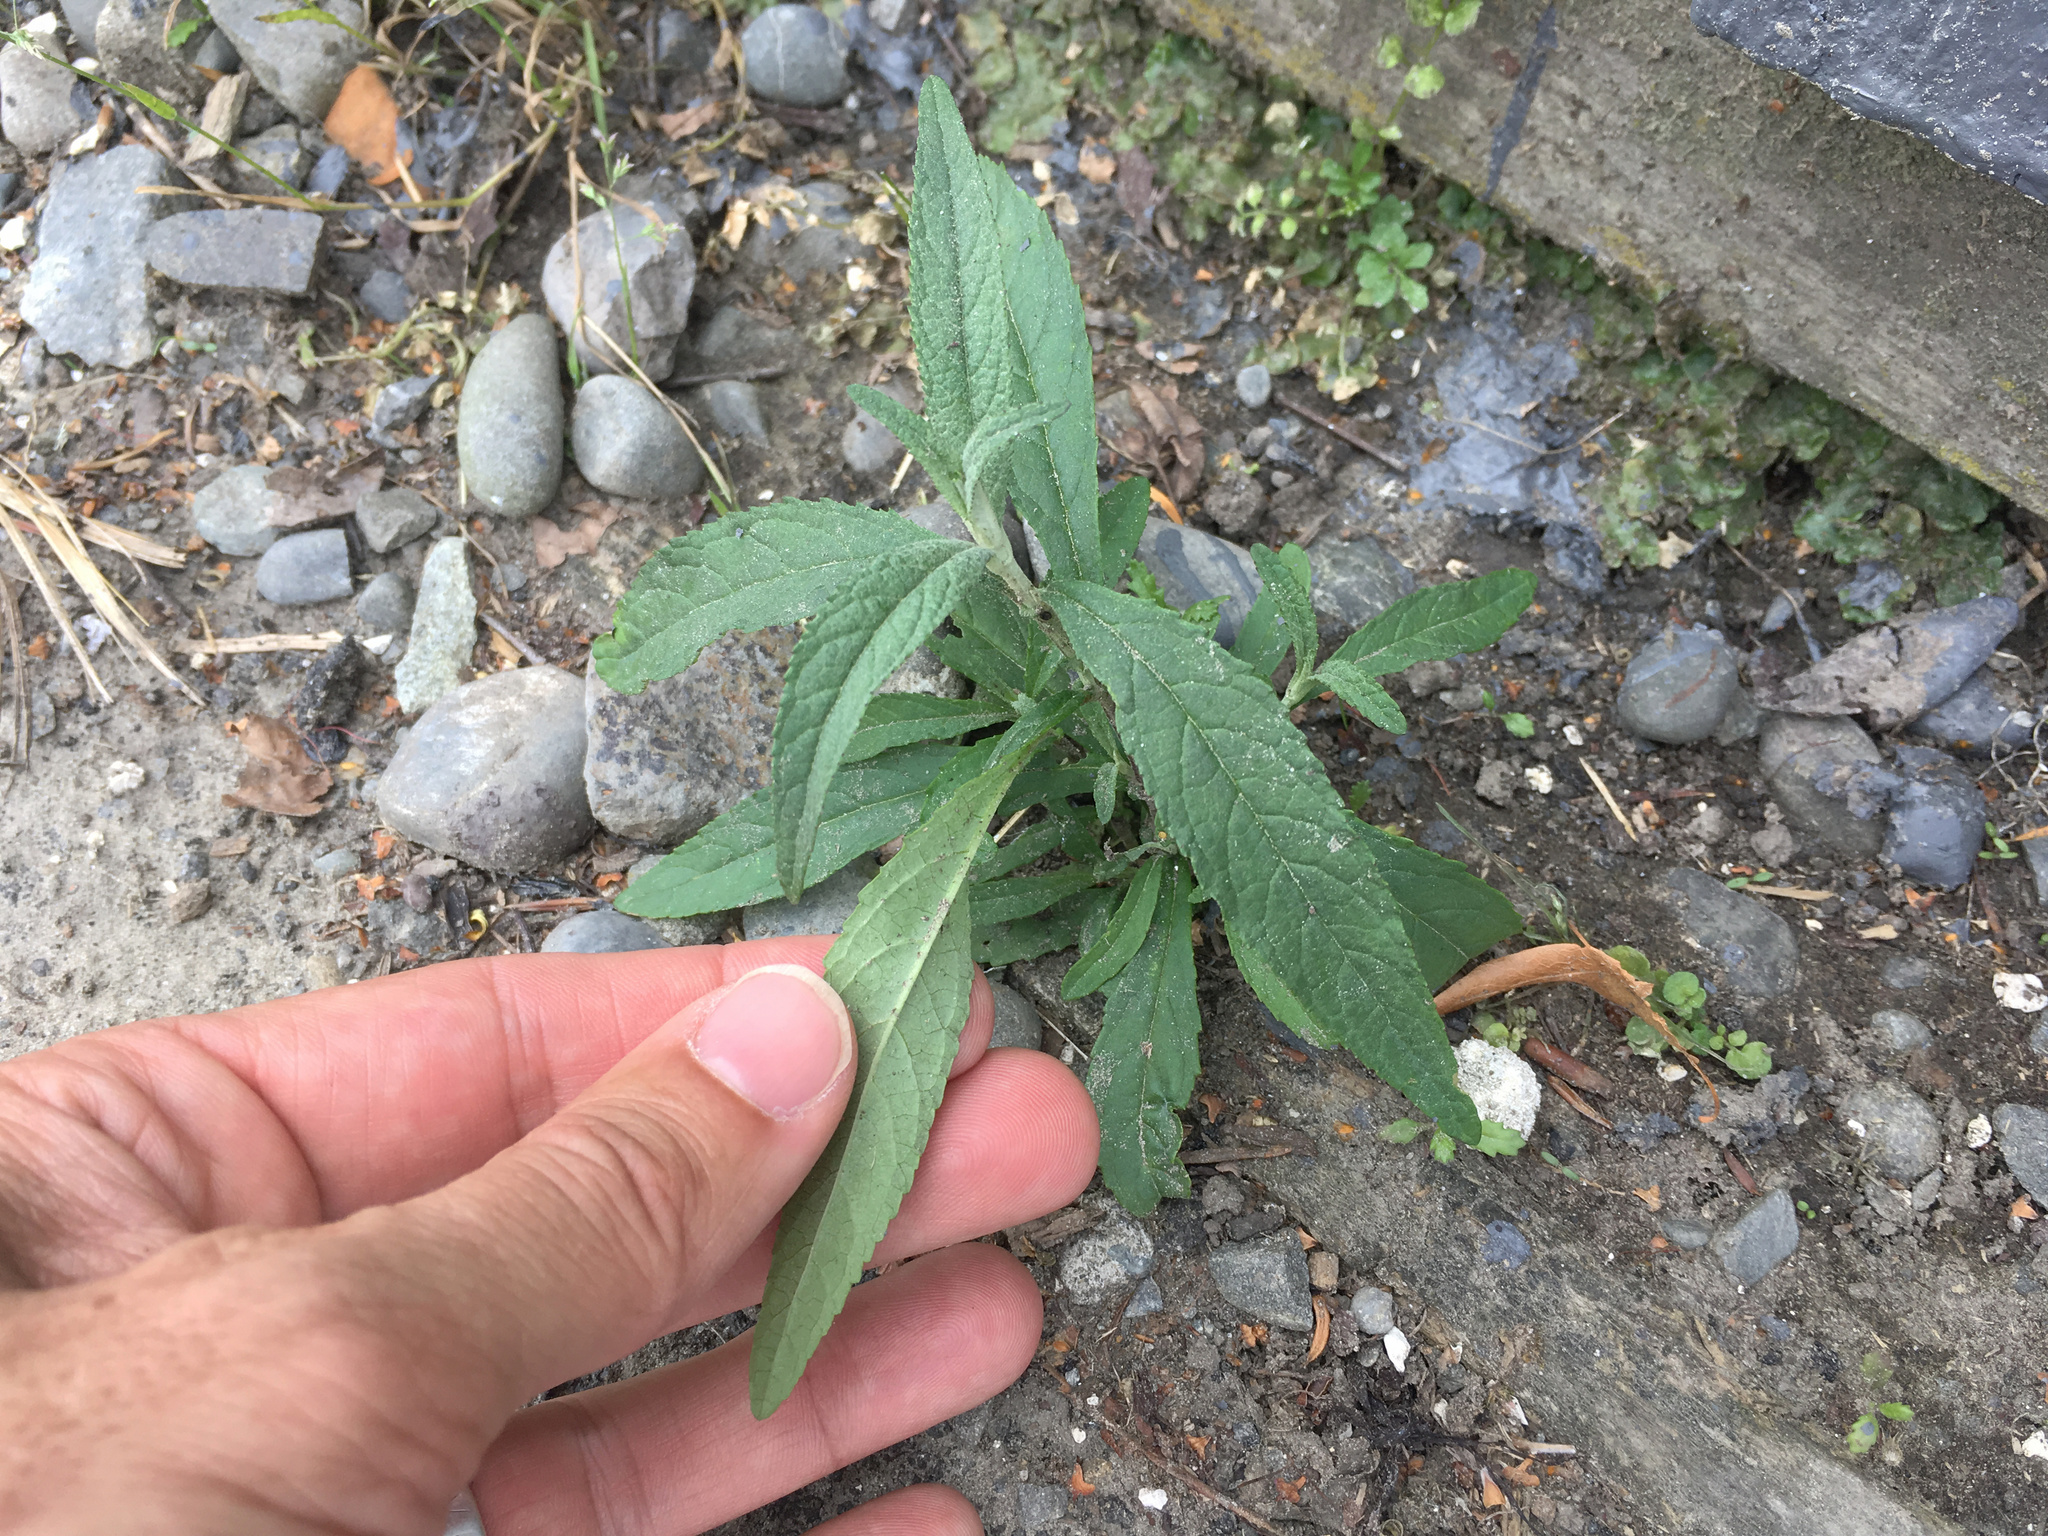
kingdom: Plantae
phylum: Tracheophyta
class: Magnoliopsida
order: Lamiales
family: Scrophulariaceae
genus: Buddleja
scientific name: Buddleja davidii
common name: Butterfly-bush
